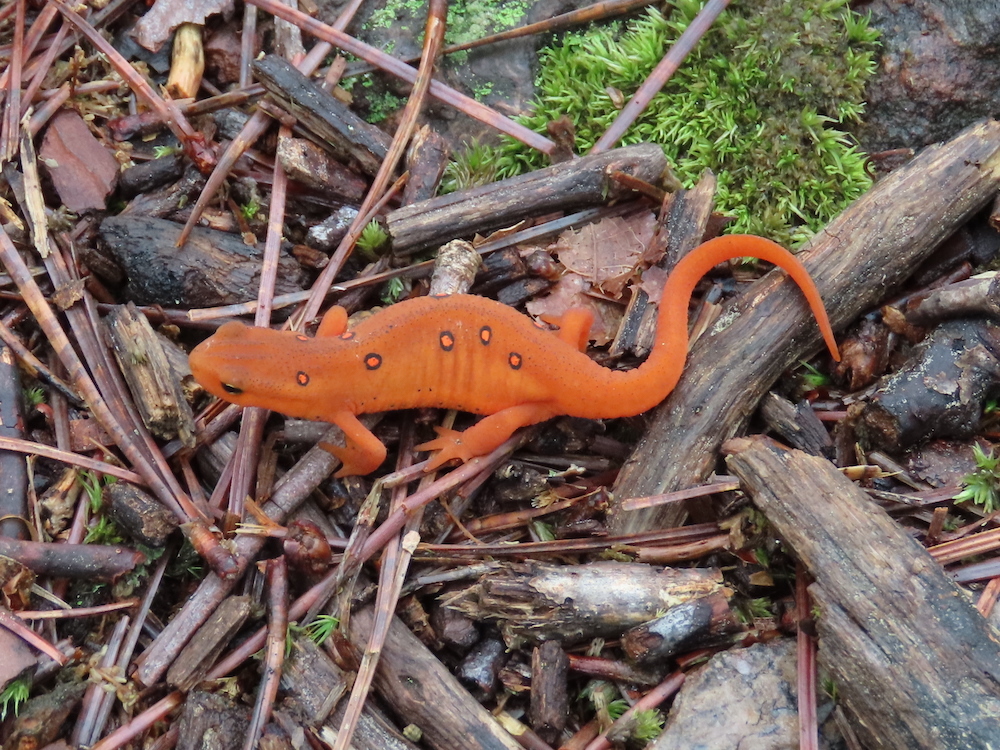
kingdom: Animalia
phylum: Chordata
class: Amphibia
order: Caudata
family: Salamandridae
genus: Notophthalmus
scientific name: Notophthalmus viridescens
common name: Eastern newt
